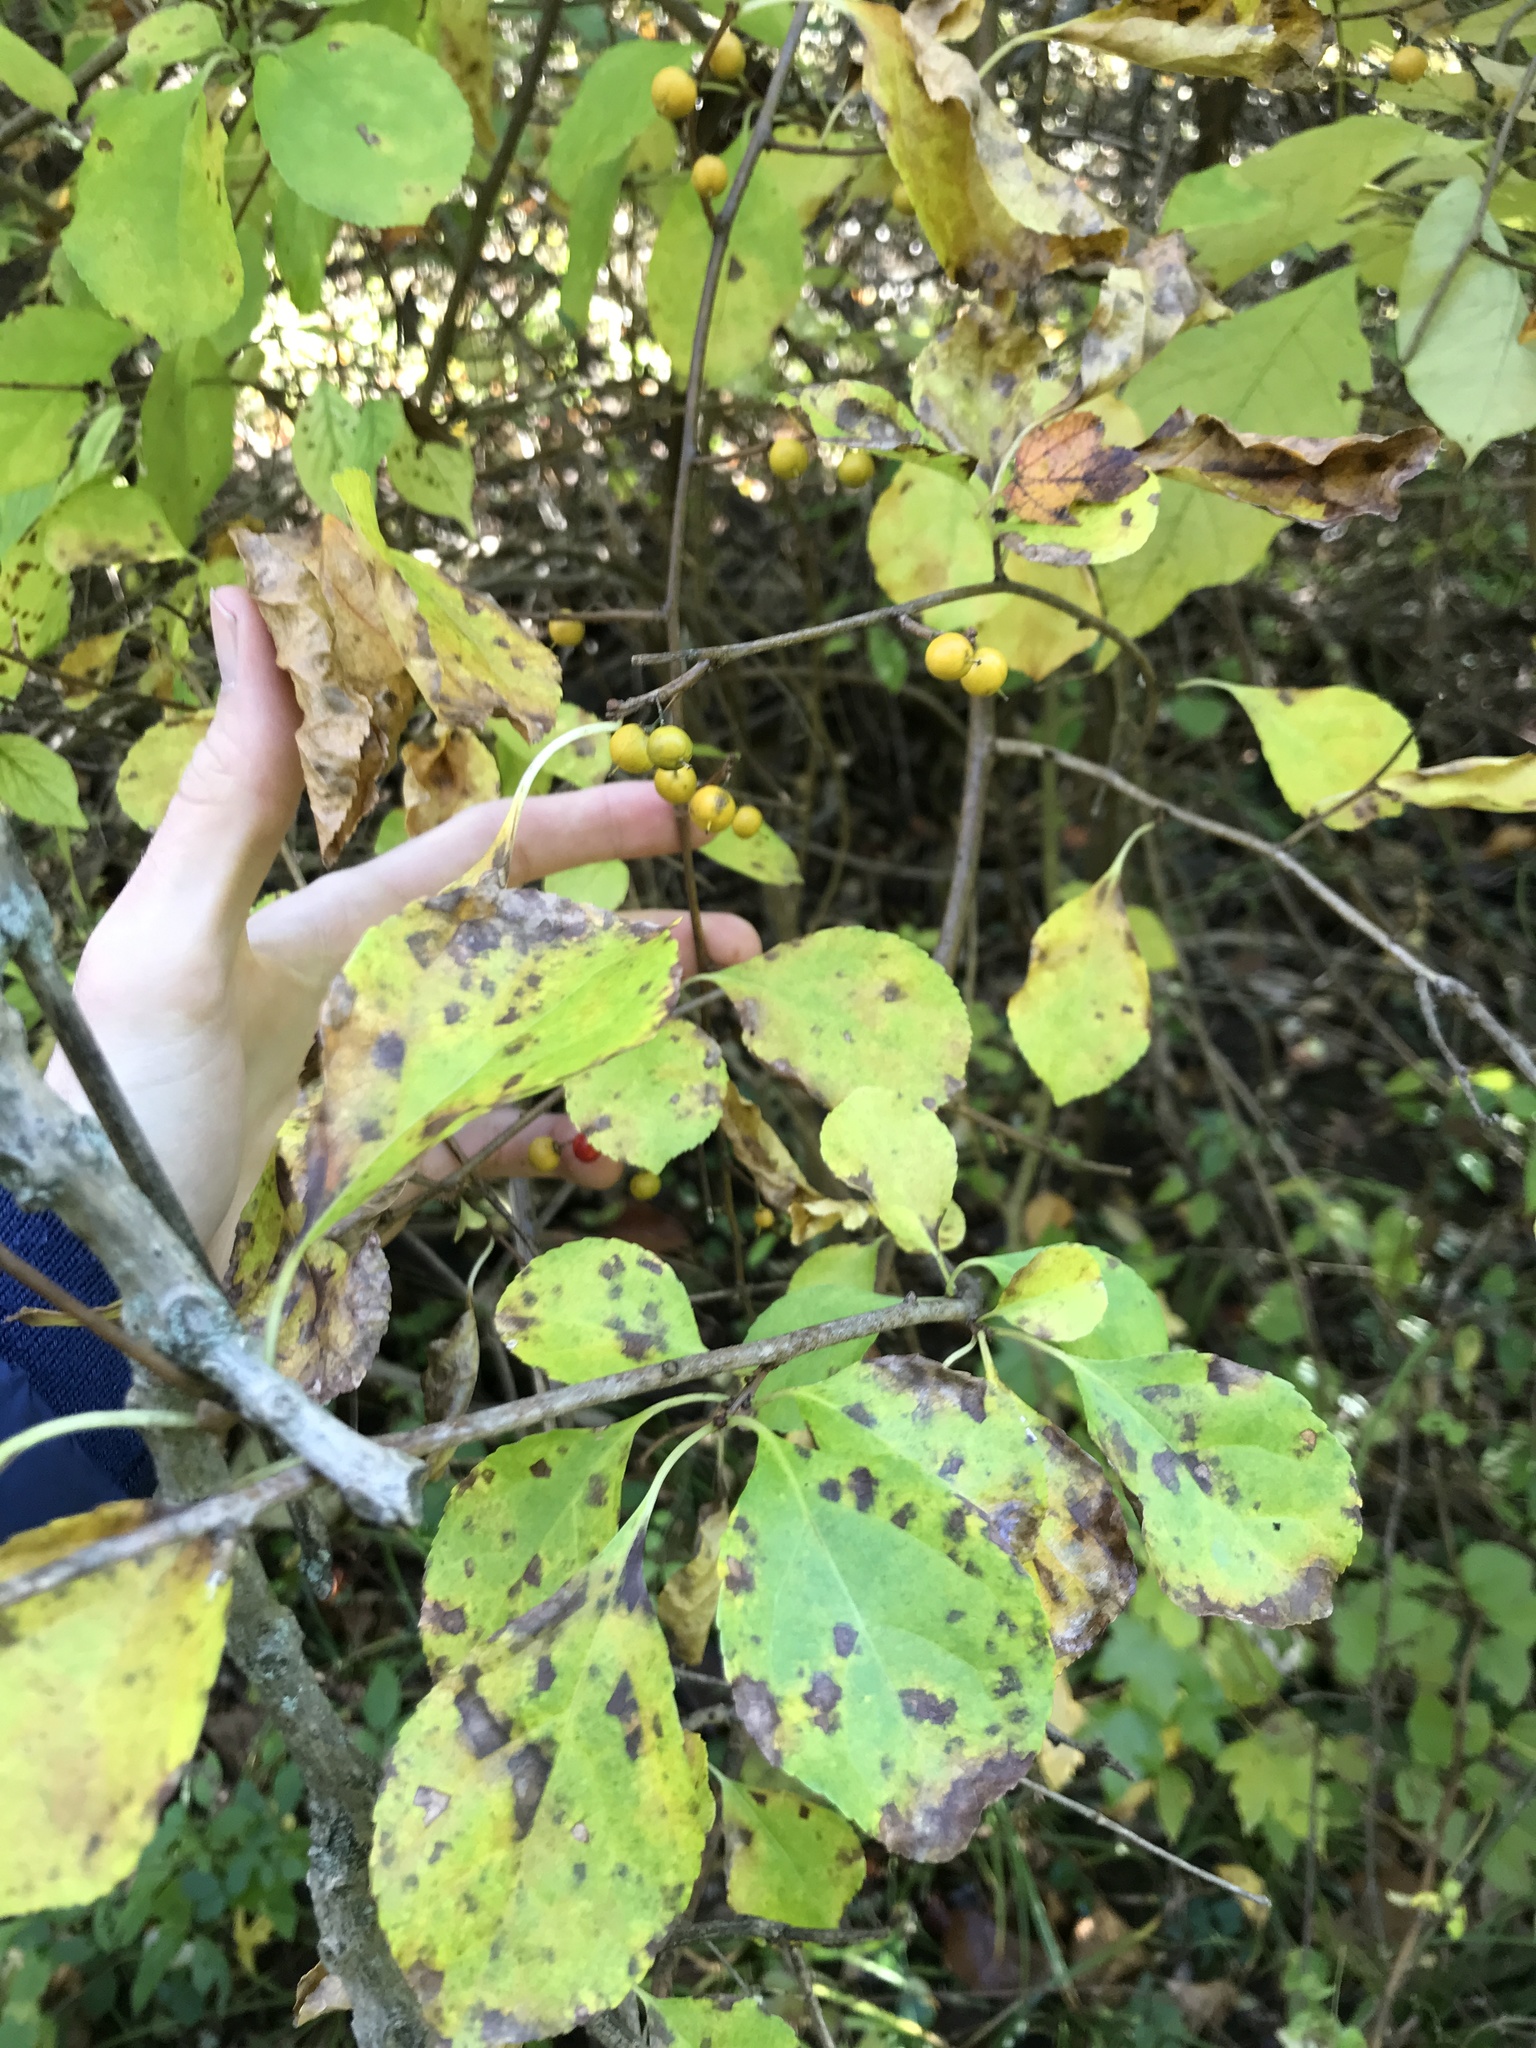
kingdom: Plantae
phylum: Tracheophyta
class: Magnoliopsida
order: Celastrales
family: Celastraceae
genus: Celastrus
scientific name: Celastrus orbiculatus
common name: Oriental bittersweet
